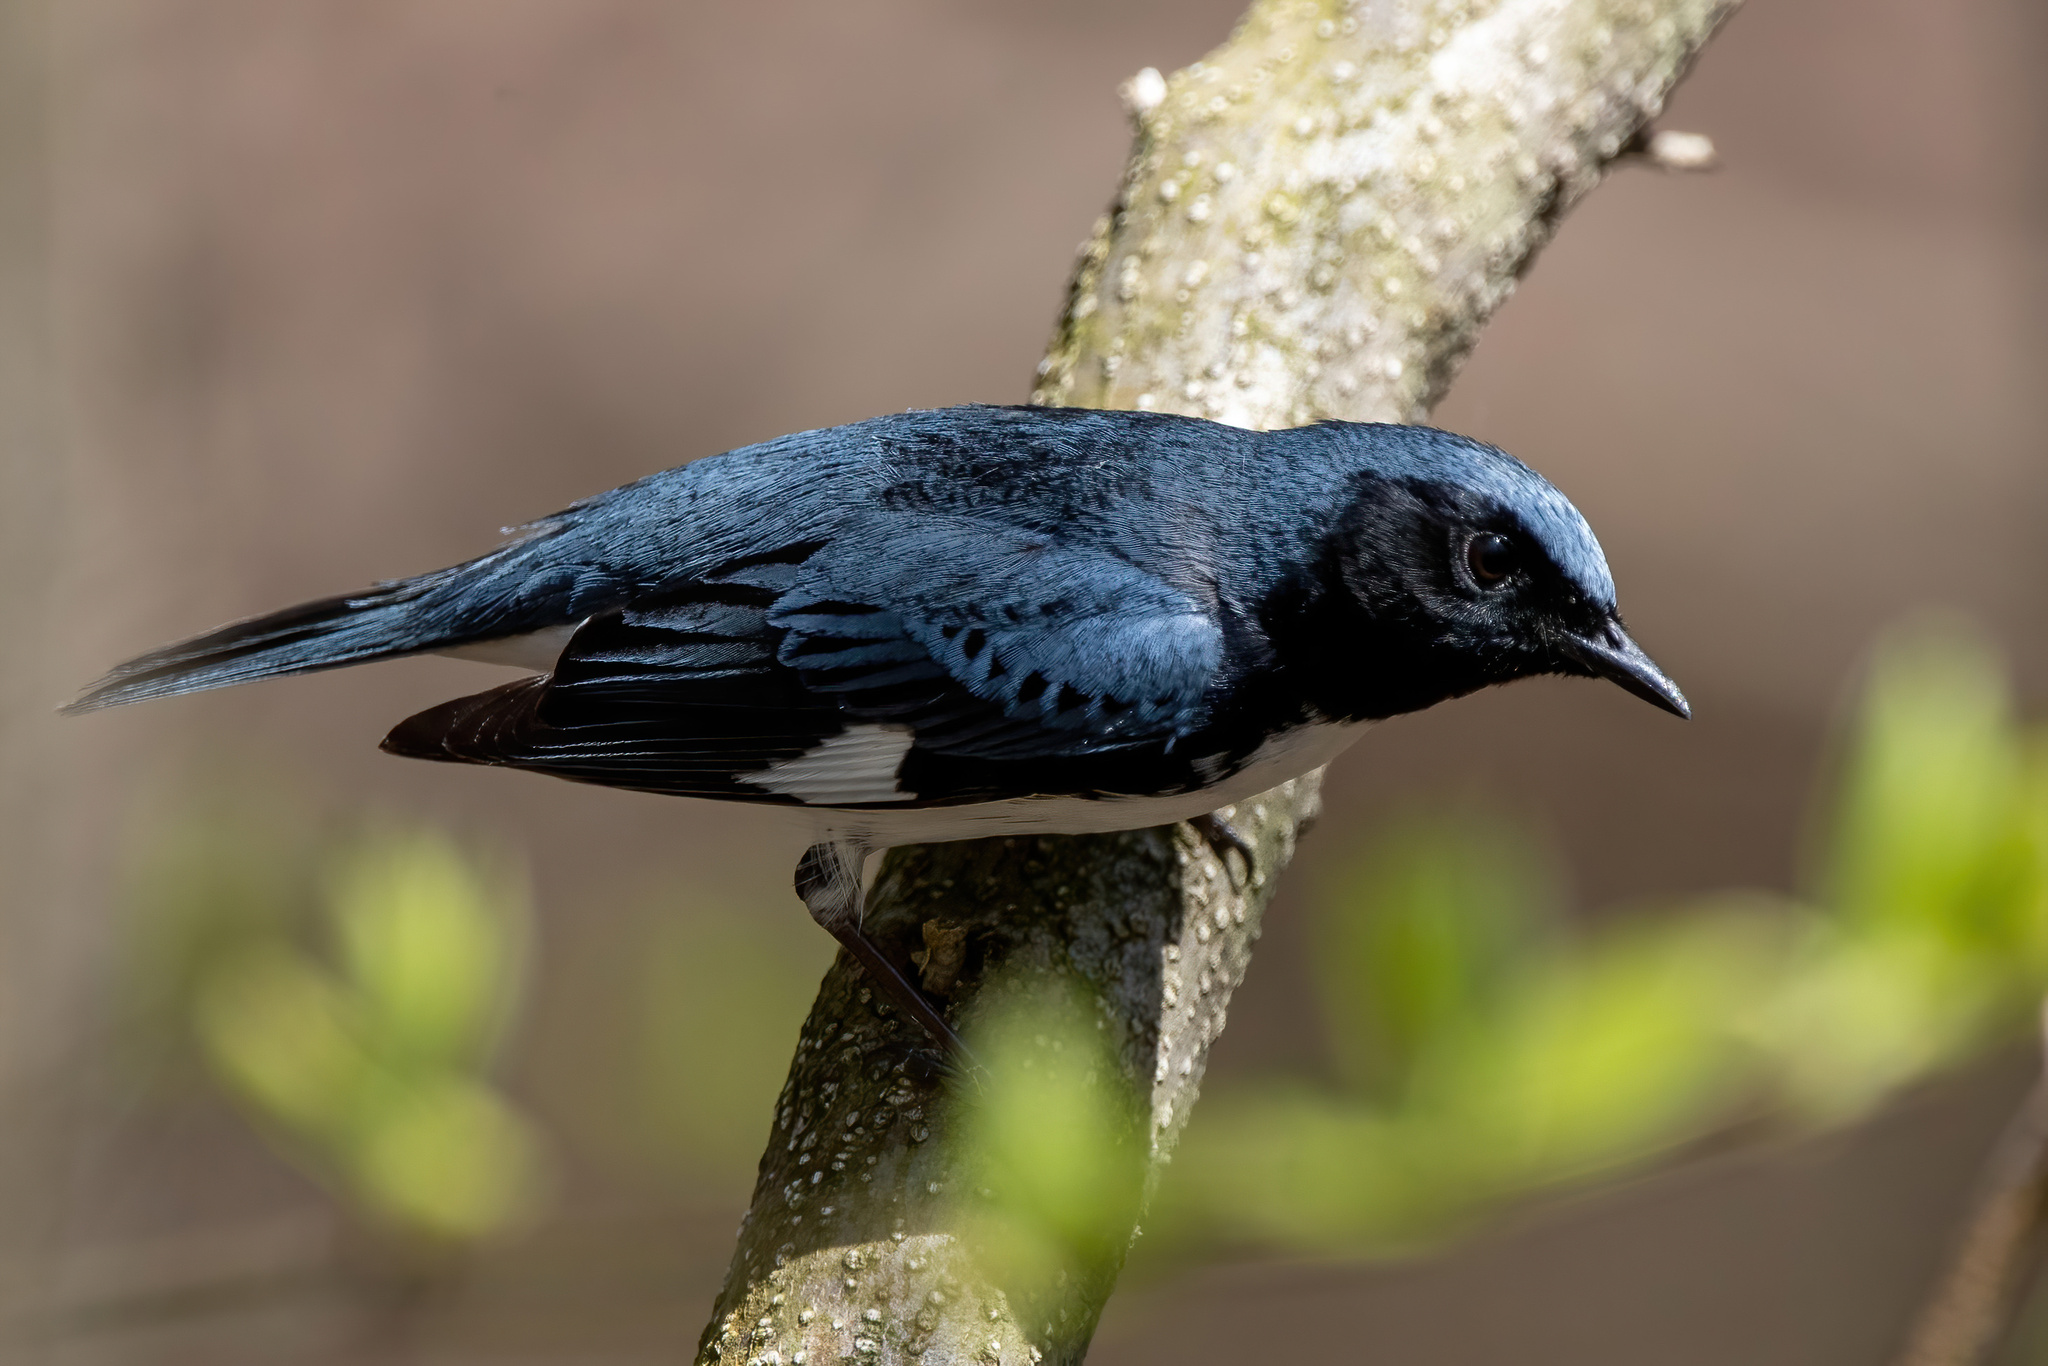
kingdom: Animalia
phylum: Chordata
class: Aves
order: Passeriformes
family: Parulidae
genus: Setophaga
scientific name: Setophaga caerulescens
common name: Black-throated blue warbler
